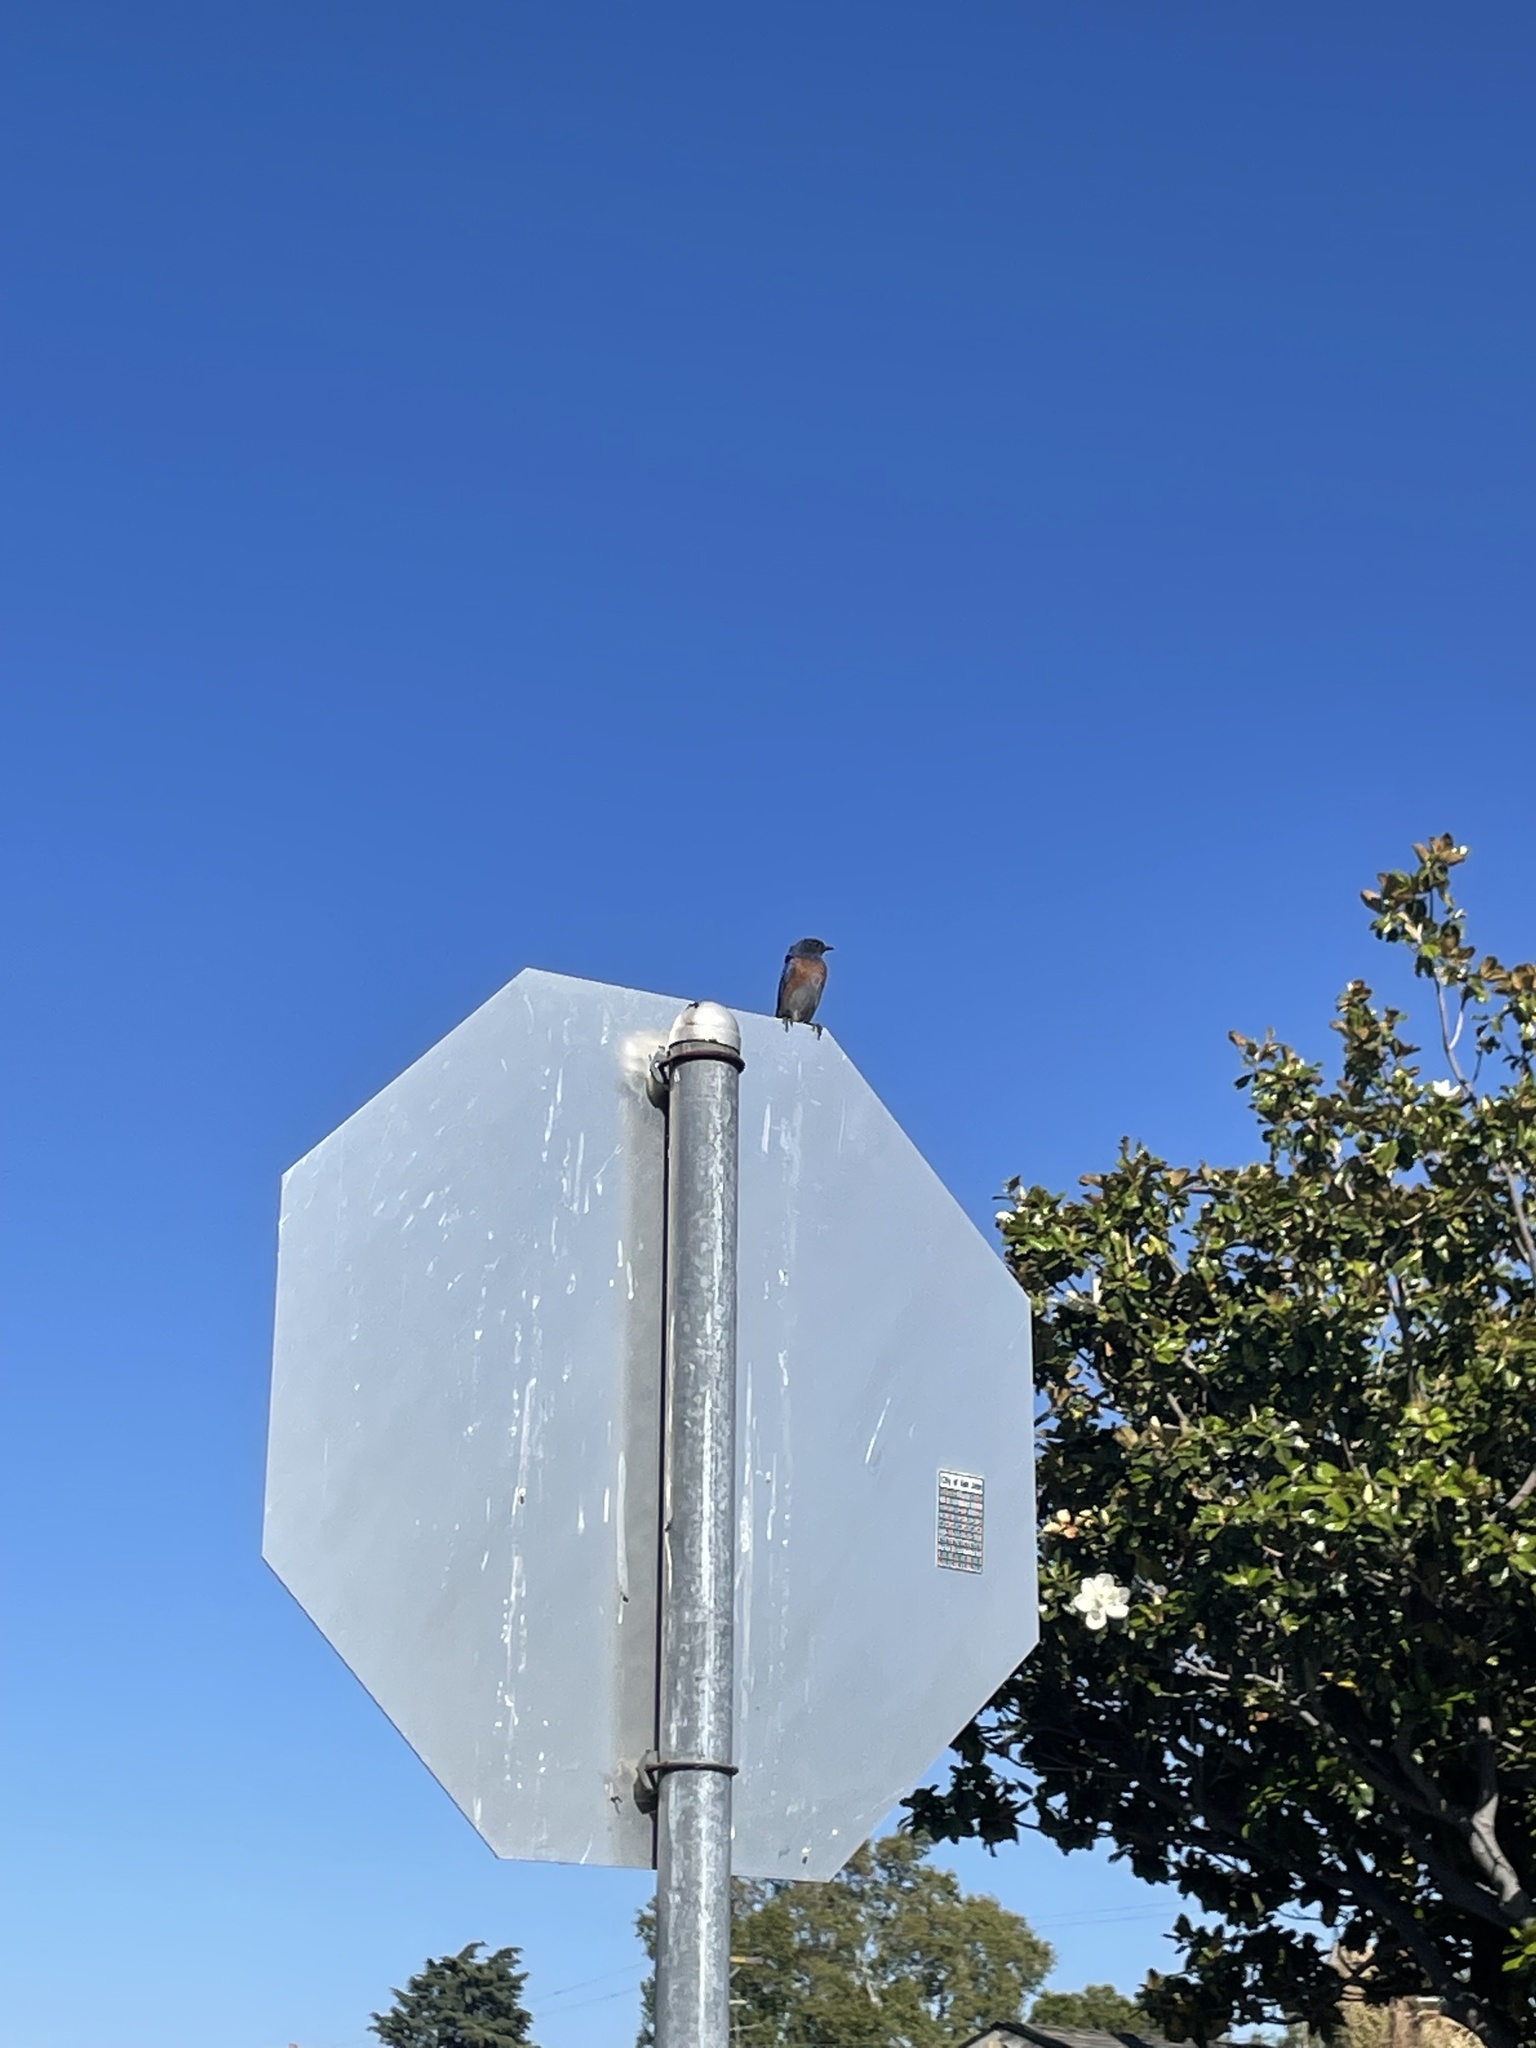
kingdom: Animalia
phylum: Chordata
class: Aves
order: Passeriformes
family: Turdidae
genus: Sialia
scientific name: Sialia mexicana
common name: Western bluebird
